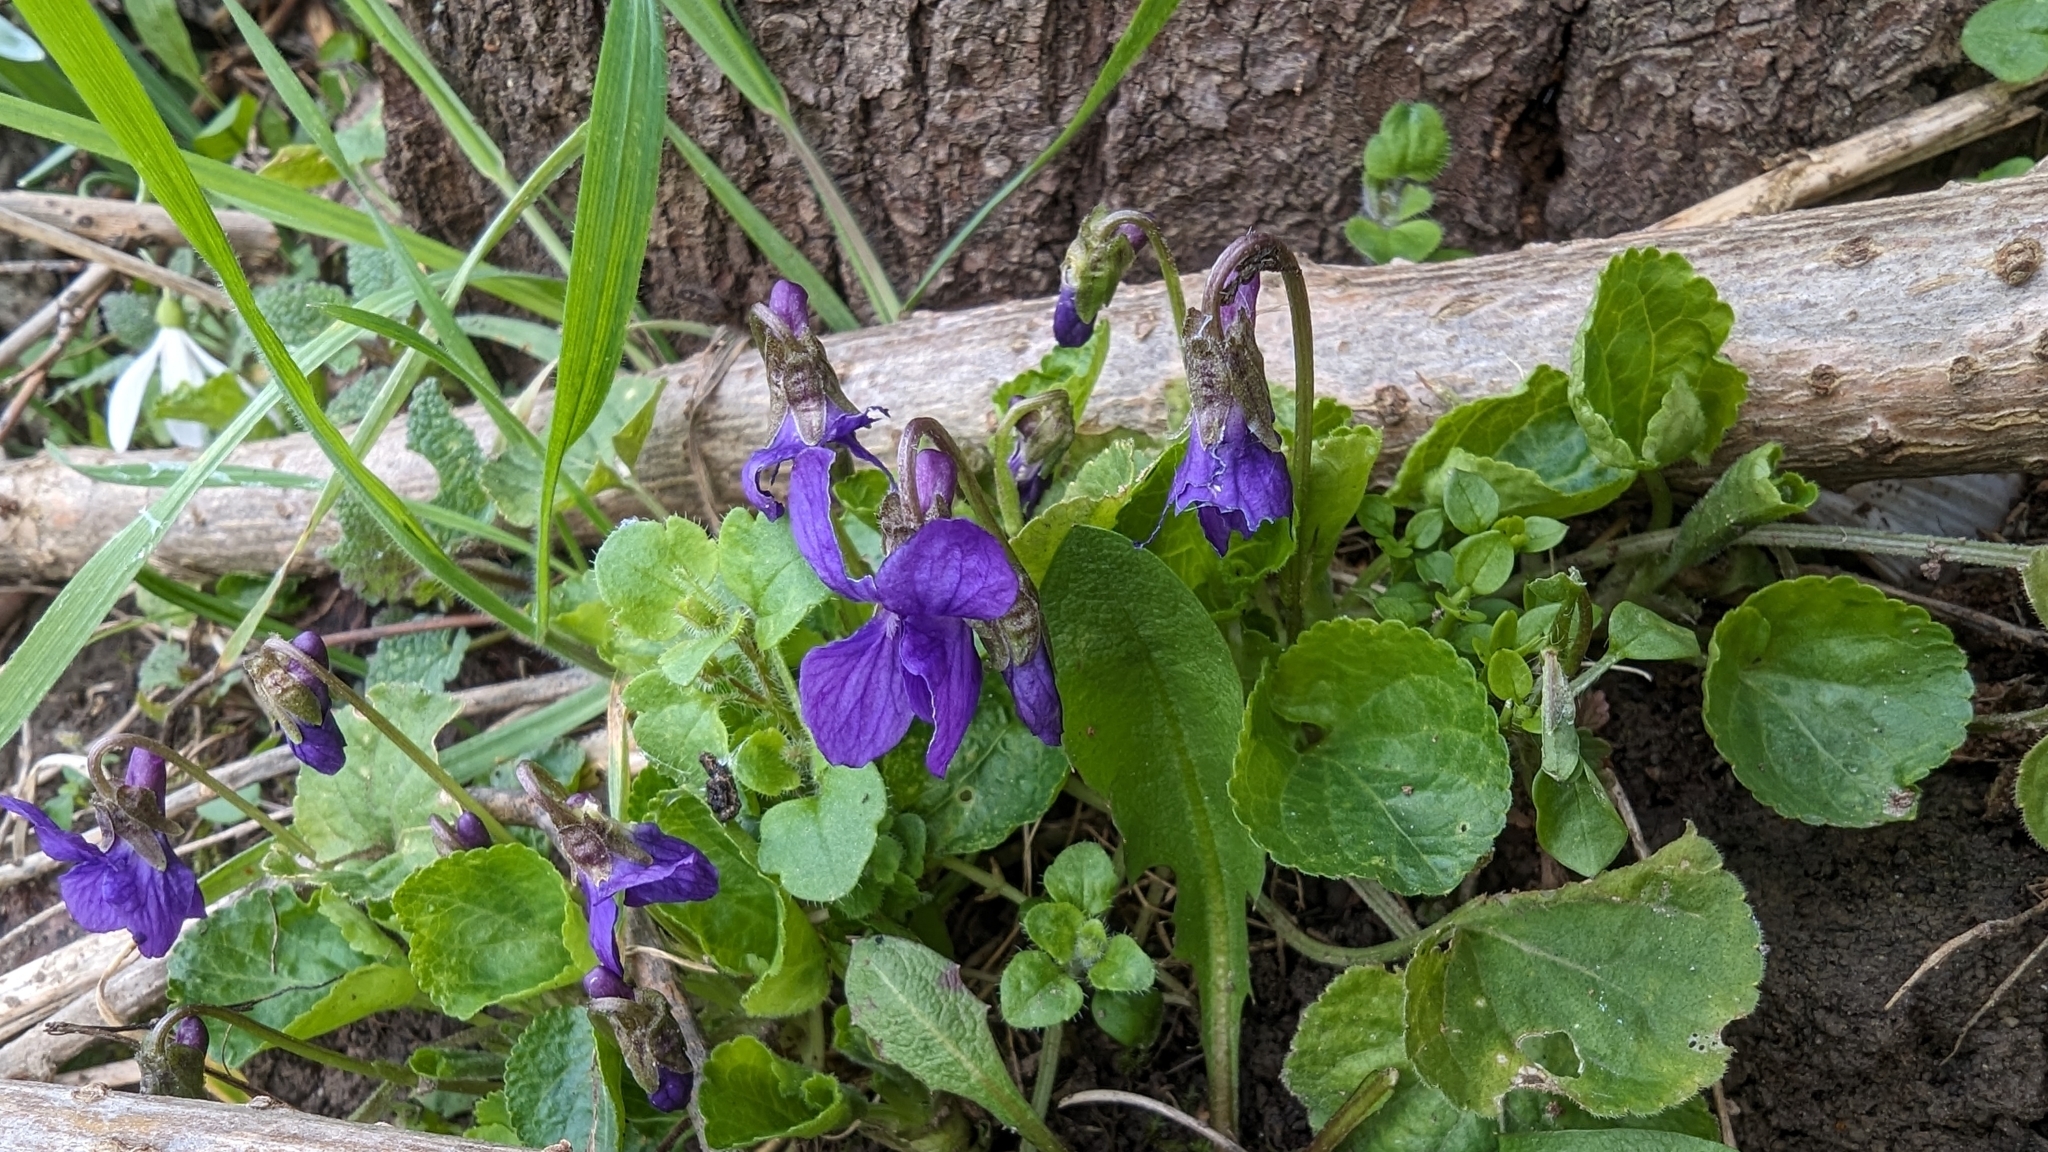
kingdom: Plantae
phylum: Tracheophyta
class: Magnoliopsida
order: Malpighiales
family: Violaceae
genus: Viola
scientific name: Viola odorata
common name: Sweet violet
